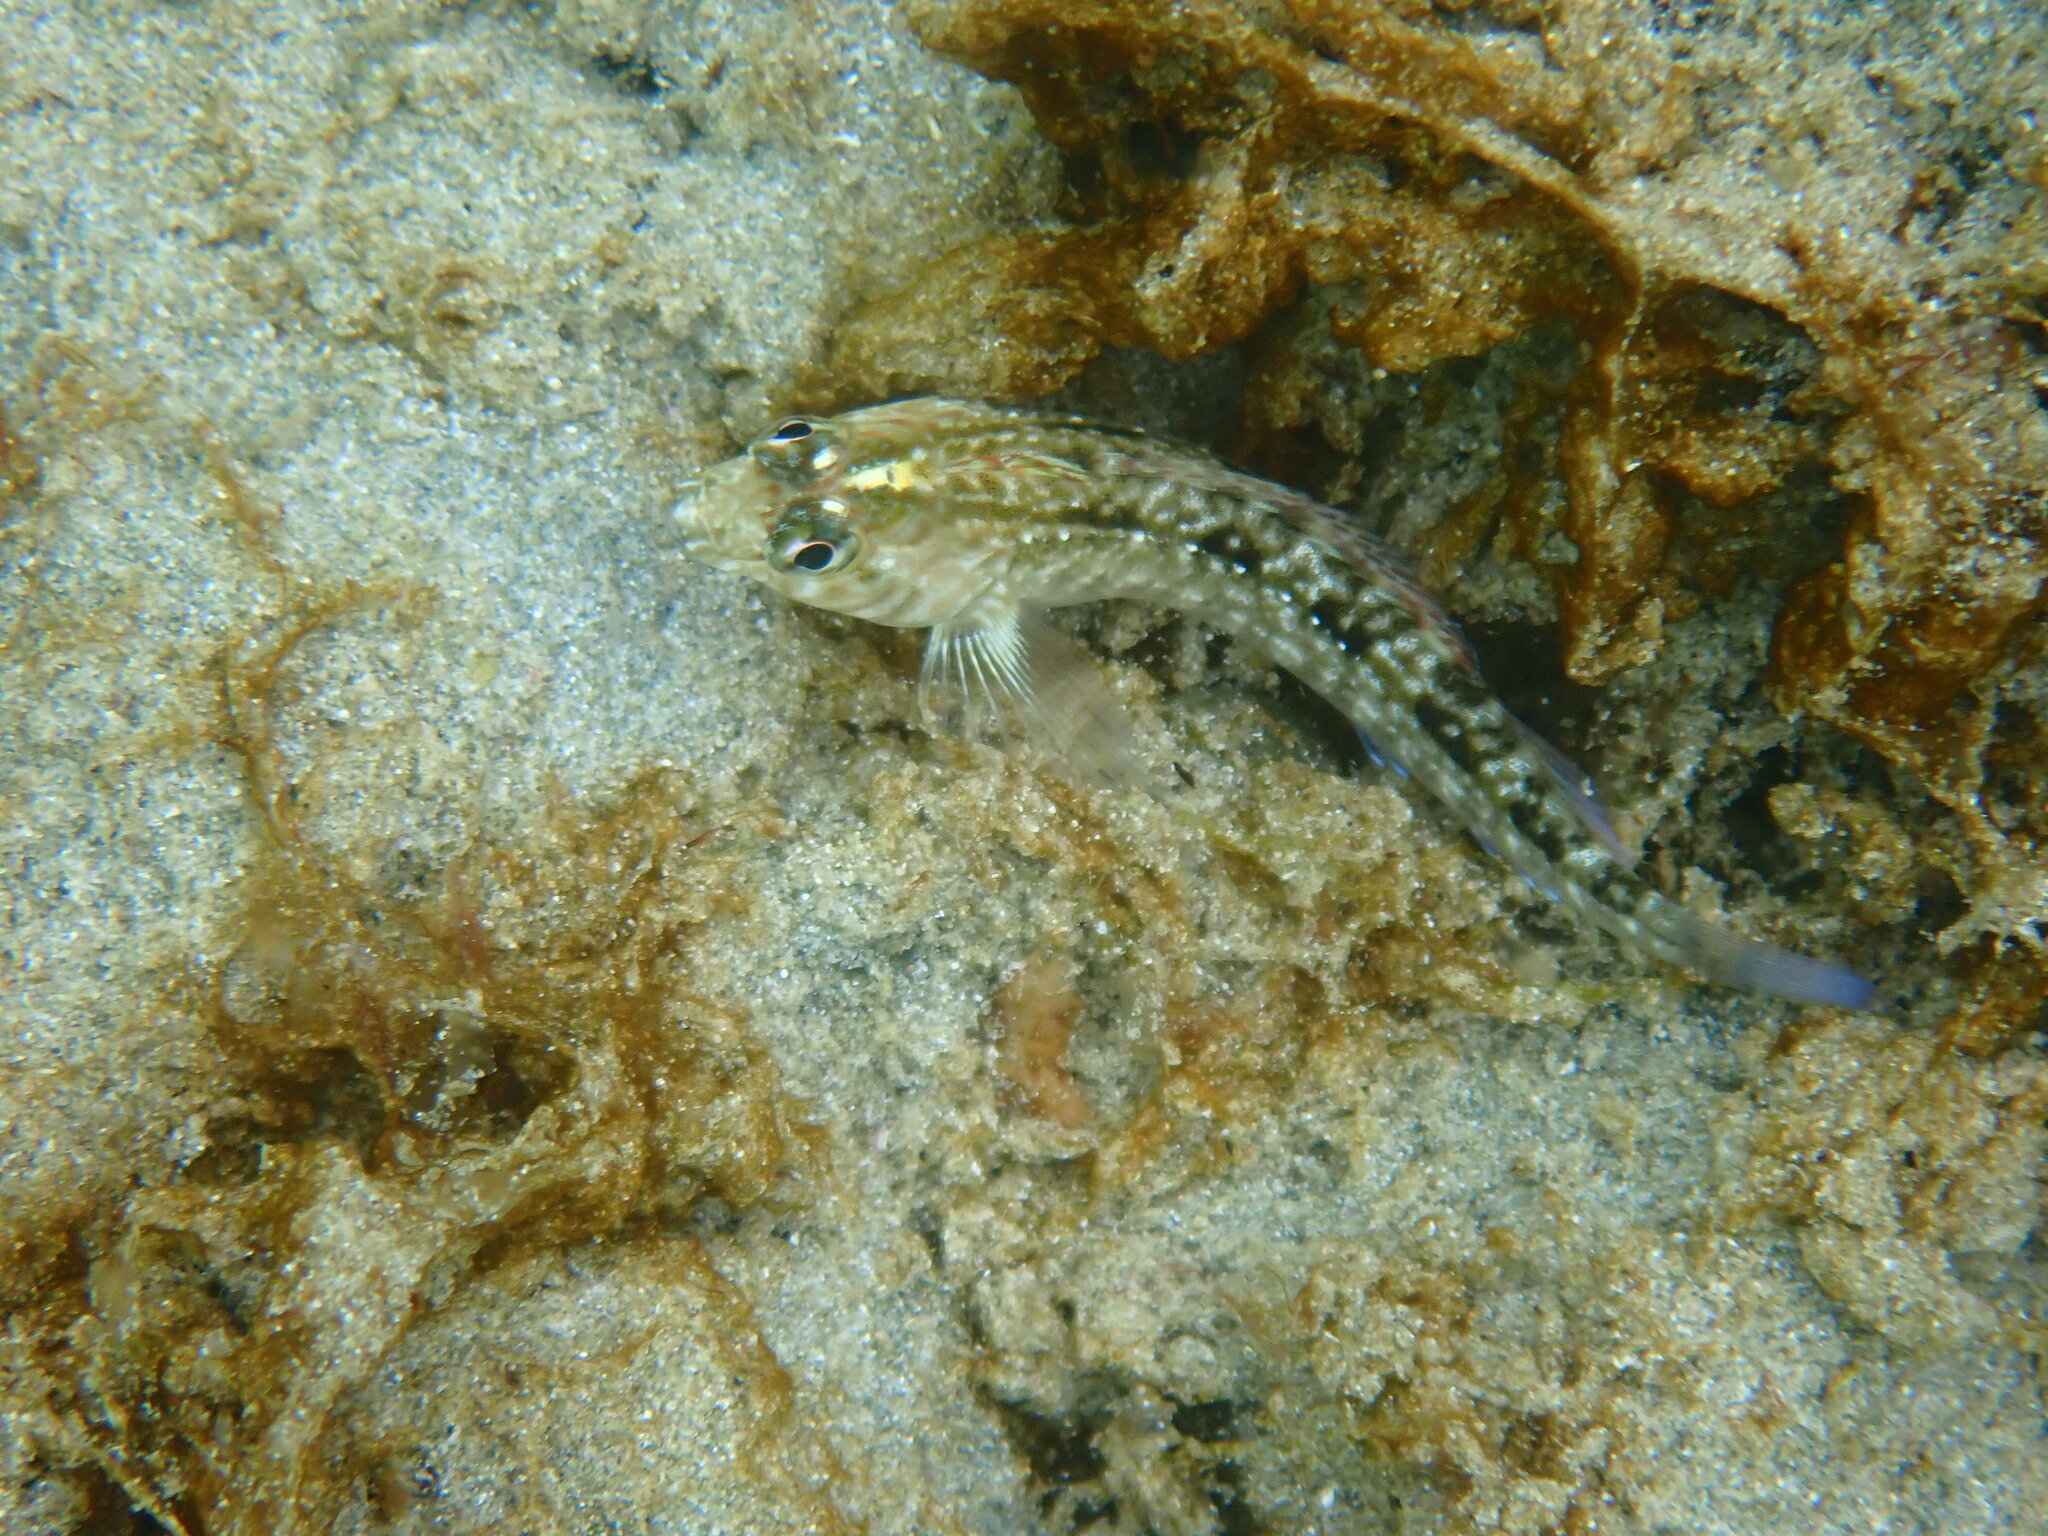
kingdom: Animalia
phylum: Chordata
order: Perciformes
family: Tripterygiidae
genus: Forsterygion
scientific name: Forsterygion lapillum
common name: Common triplefin
